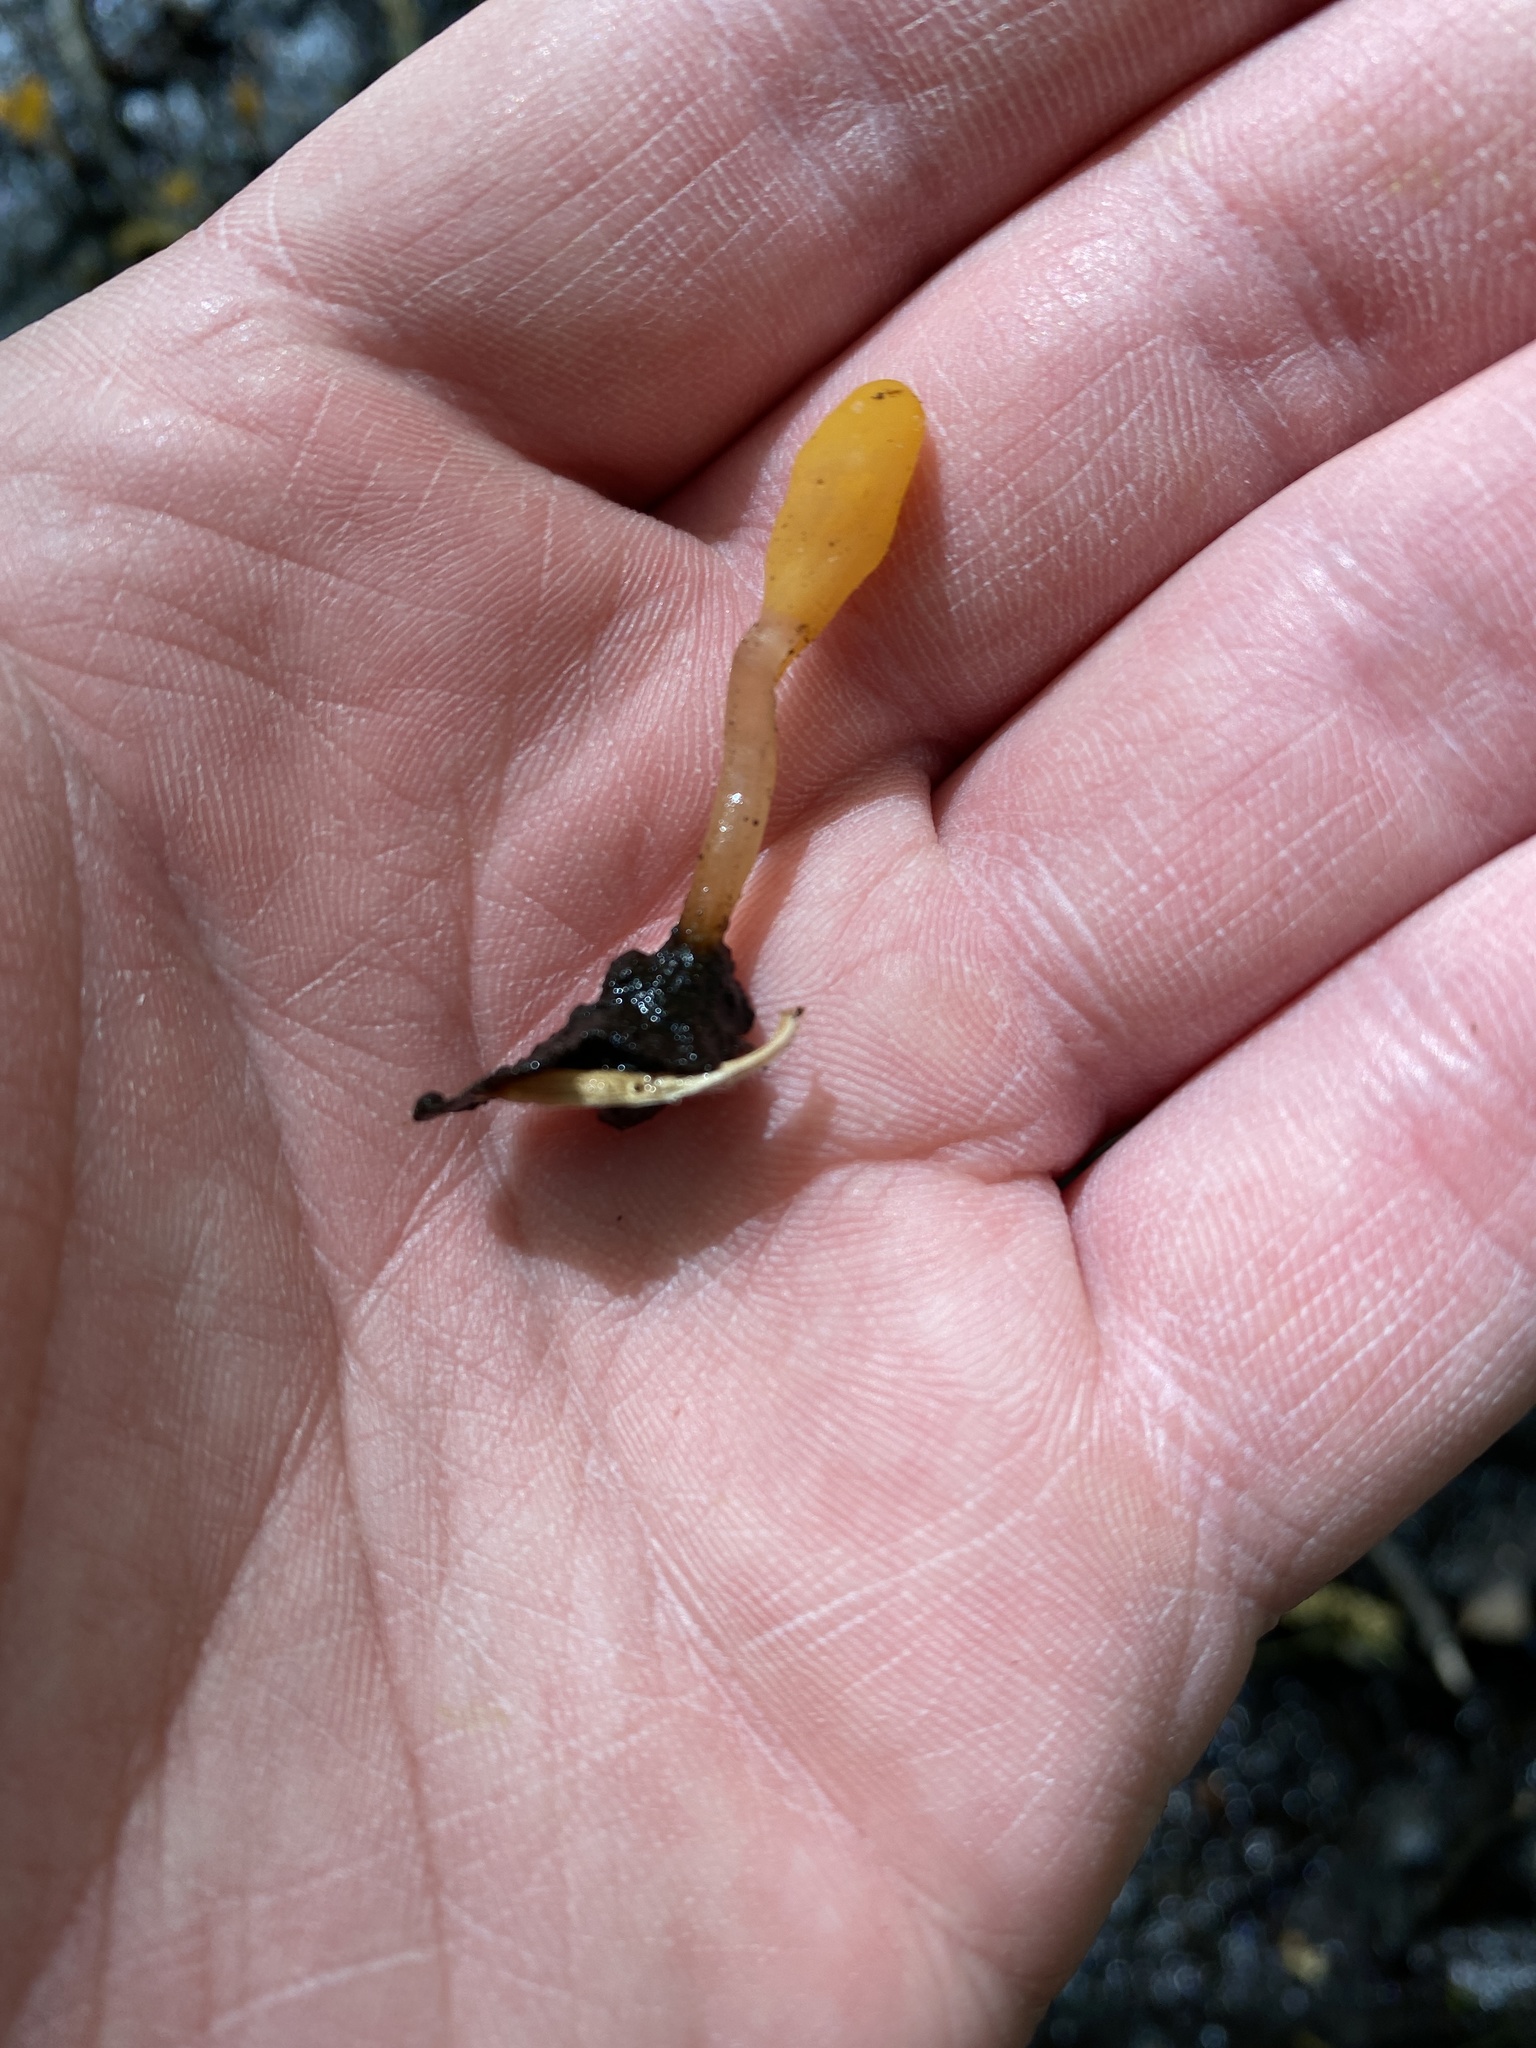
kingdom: Fungi
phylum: Ascomycota
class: Leotiomycetes
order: Helotiales
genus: Mitrula
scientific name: Mitrula
